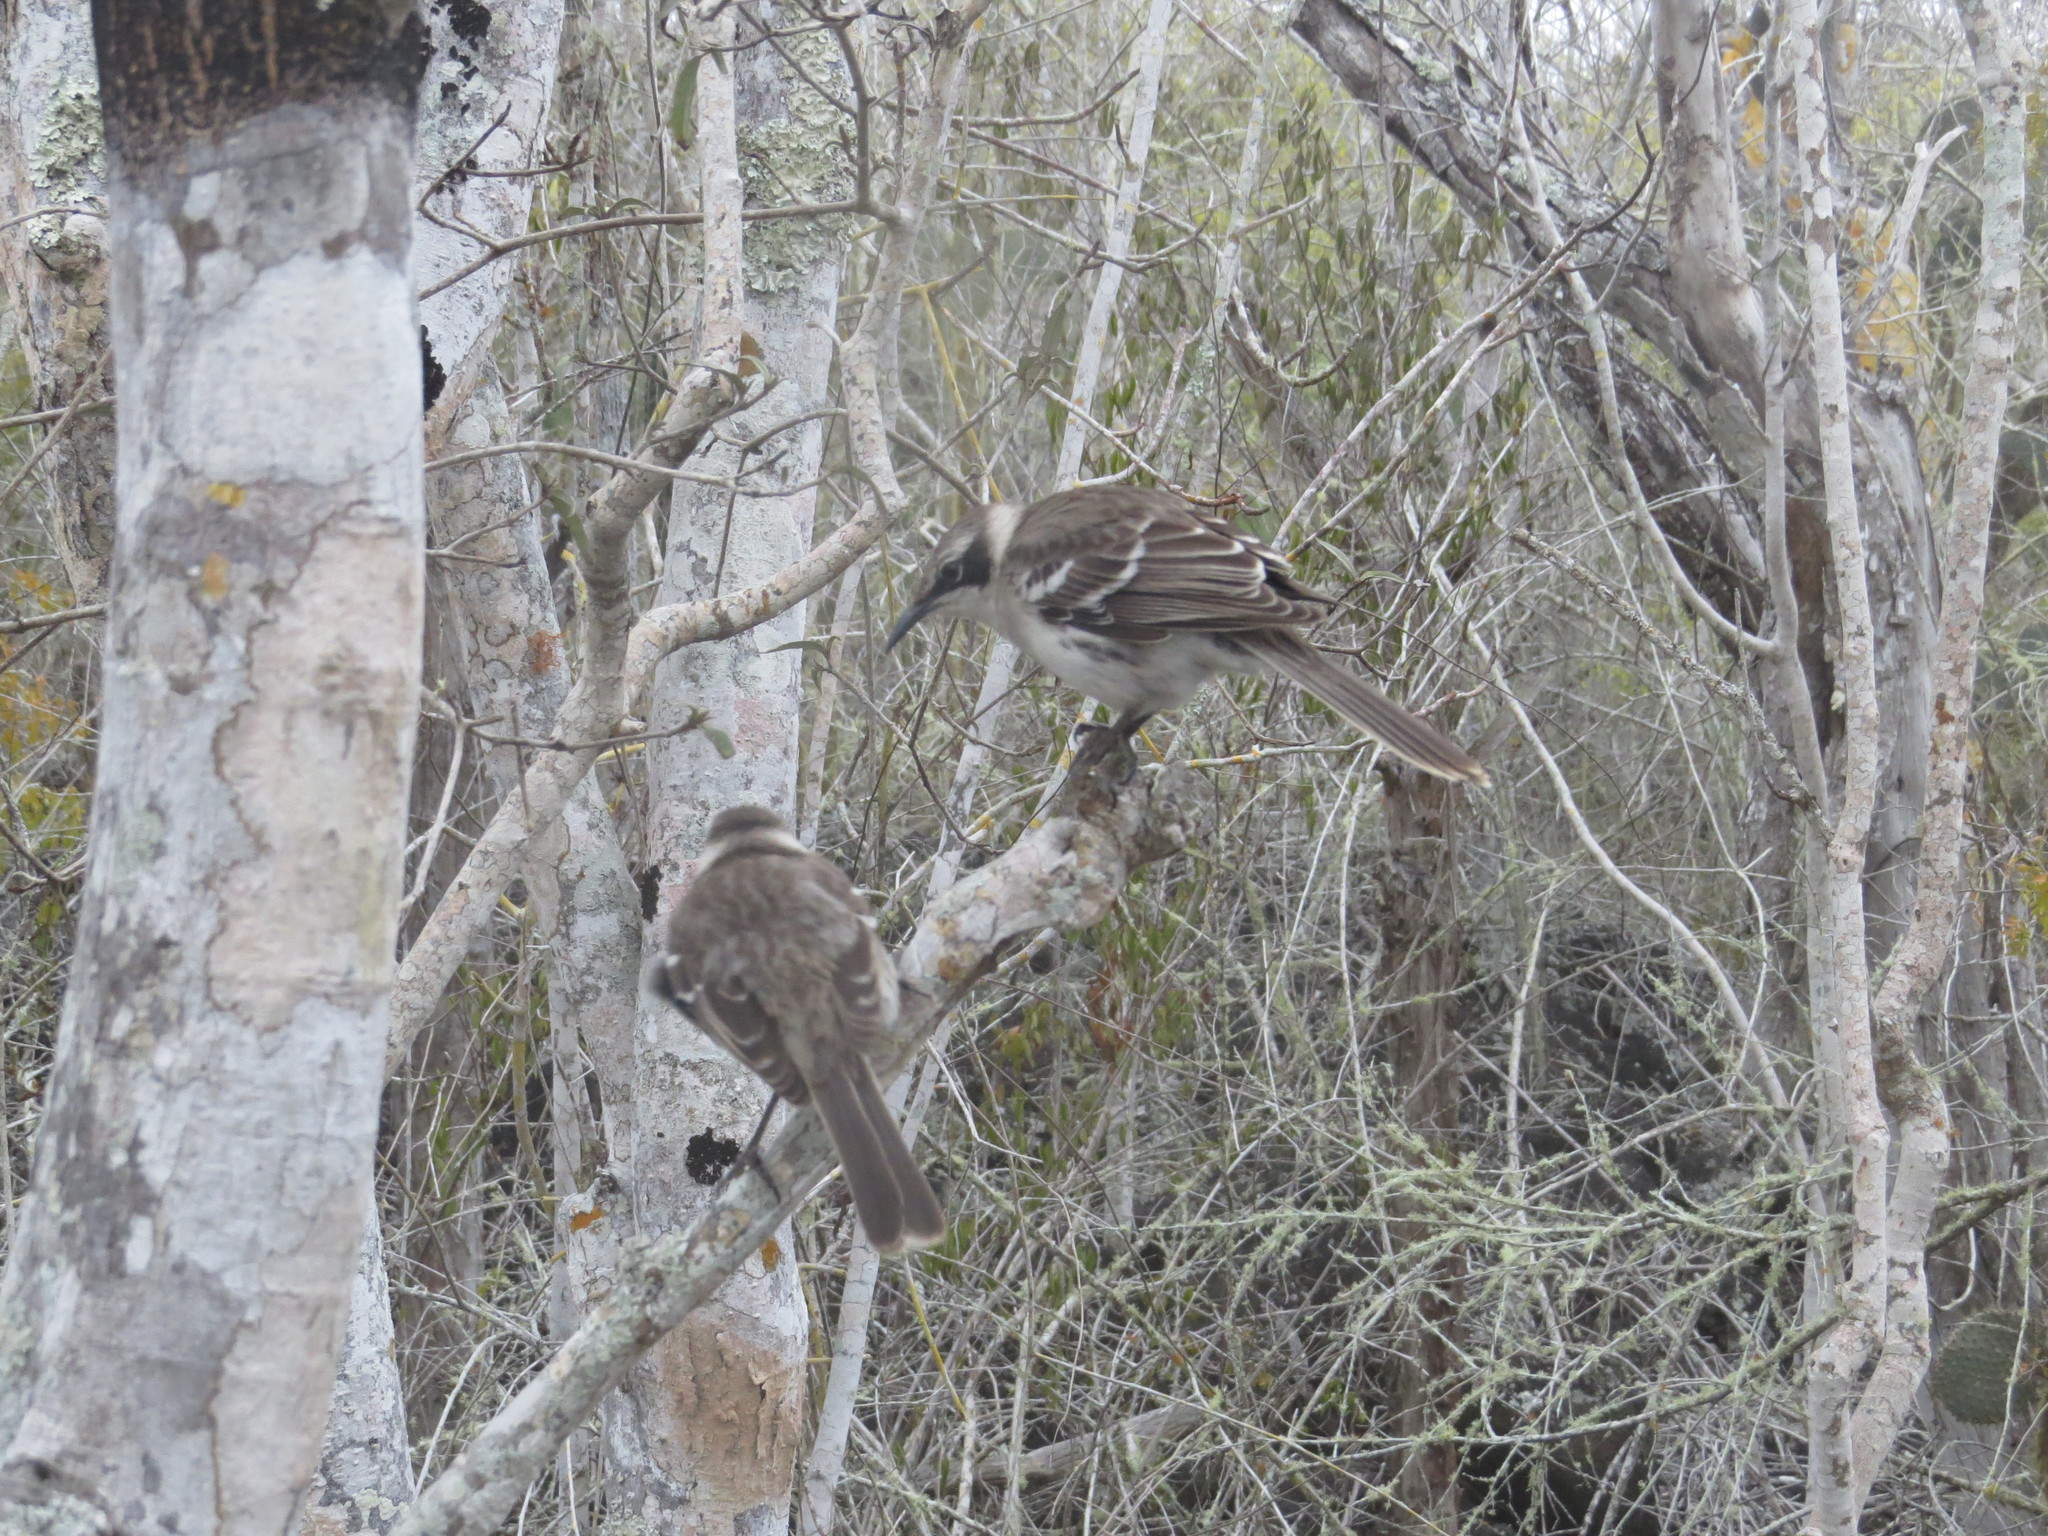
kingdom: Animalia
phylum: Chordata
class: Aves
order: Passeriformes
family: Mimidae
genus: Mimus
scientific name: Mimus parvulus
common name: Galapagos mockingbird
